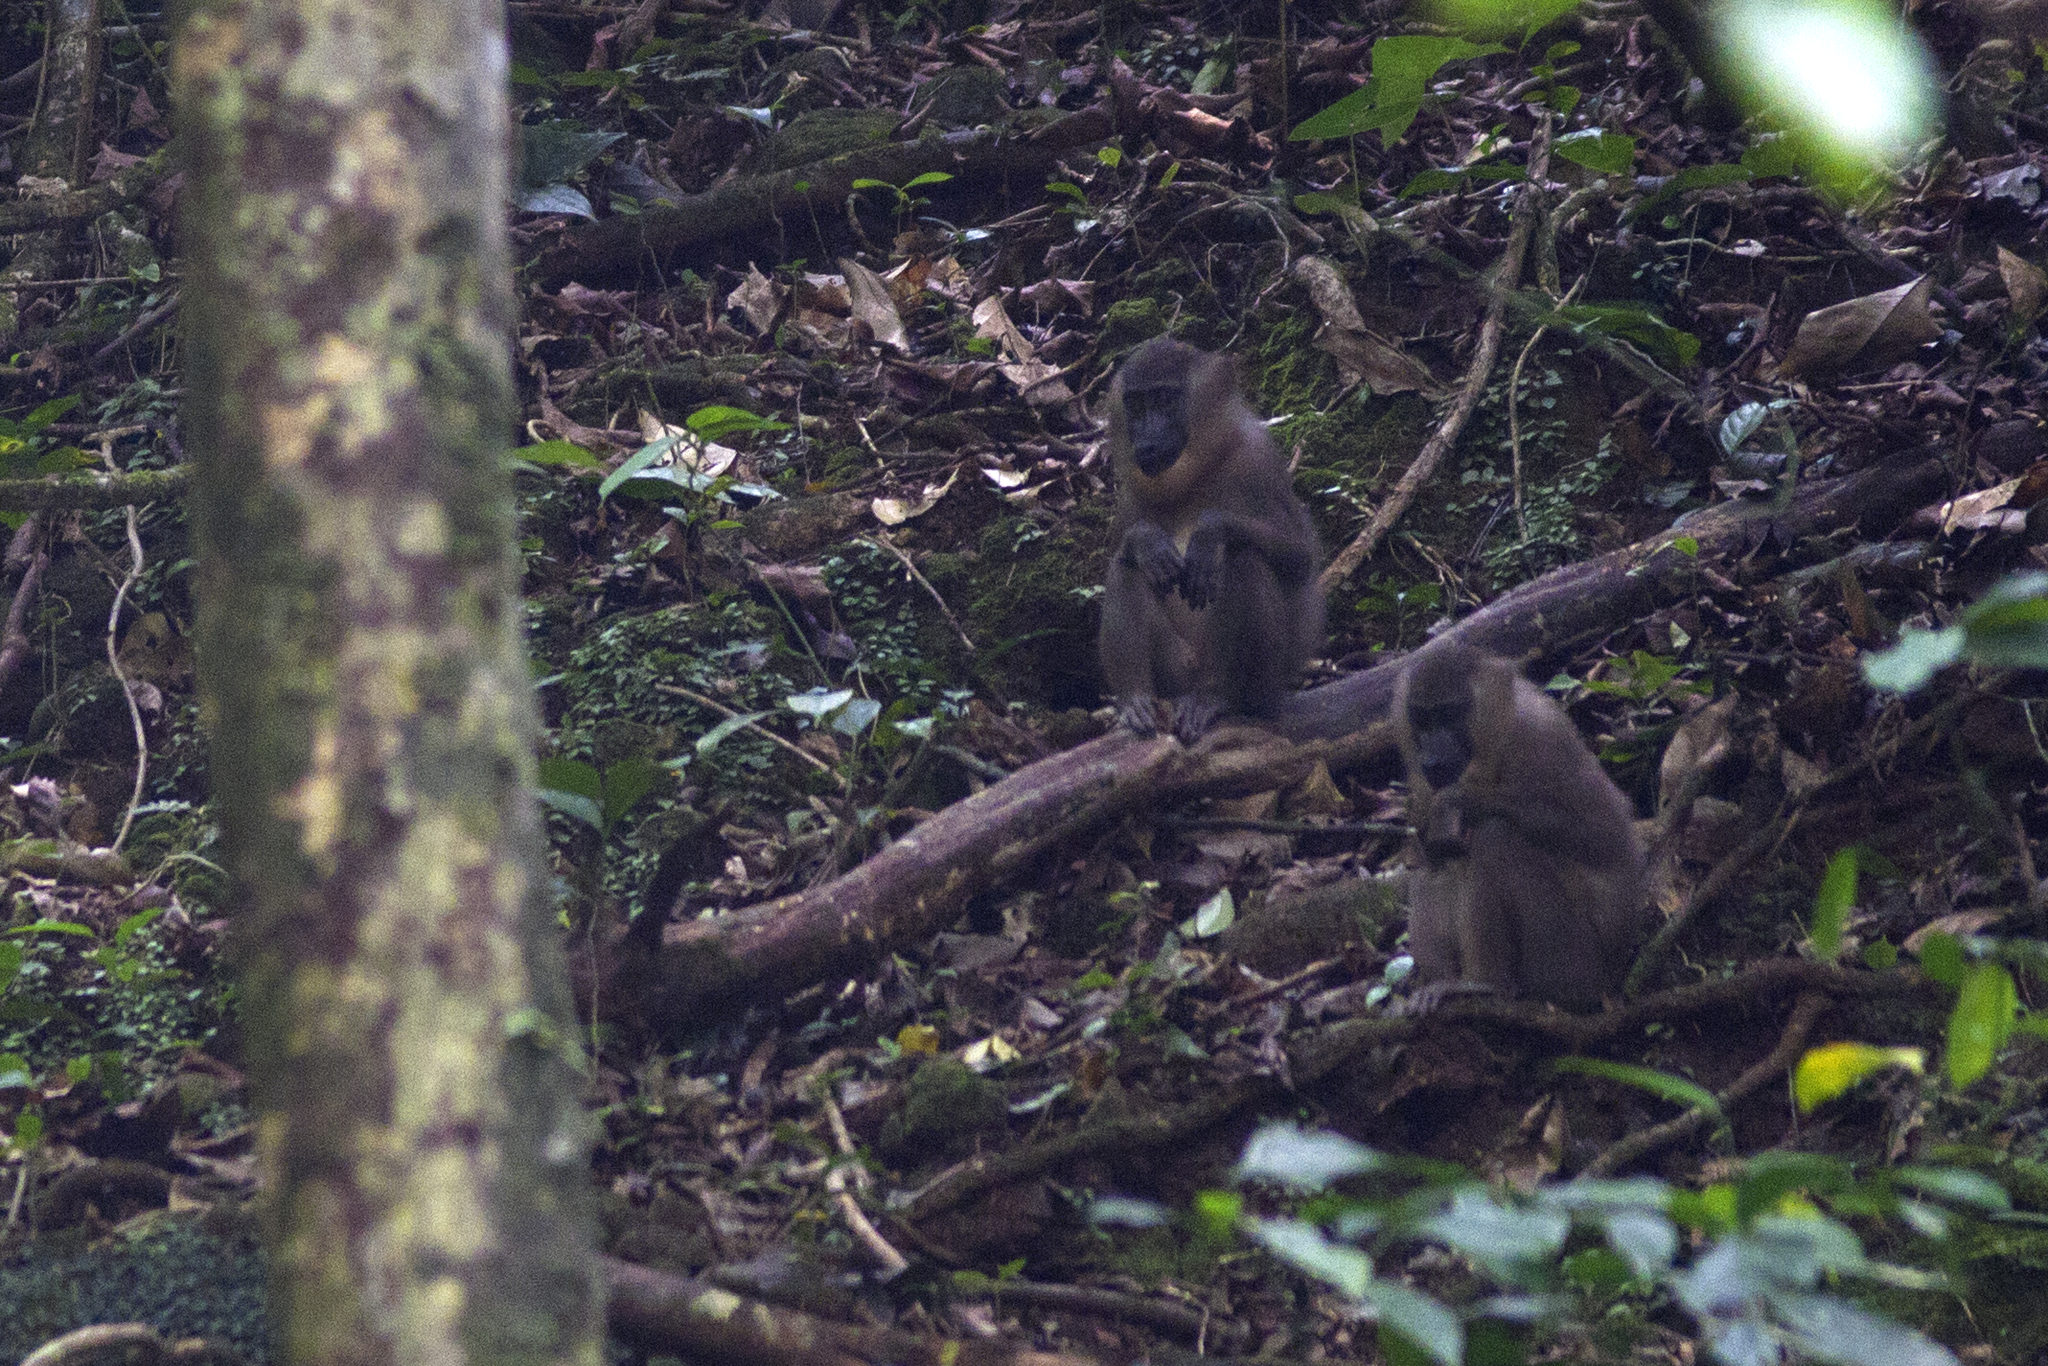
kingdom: Animalia
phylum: Chordata
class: Mammalia
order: Primates
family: Cercopithecidae
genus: Mandrillus
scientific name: Mandrillus leucophaeus
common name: Drill
